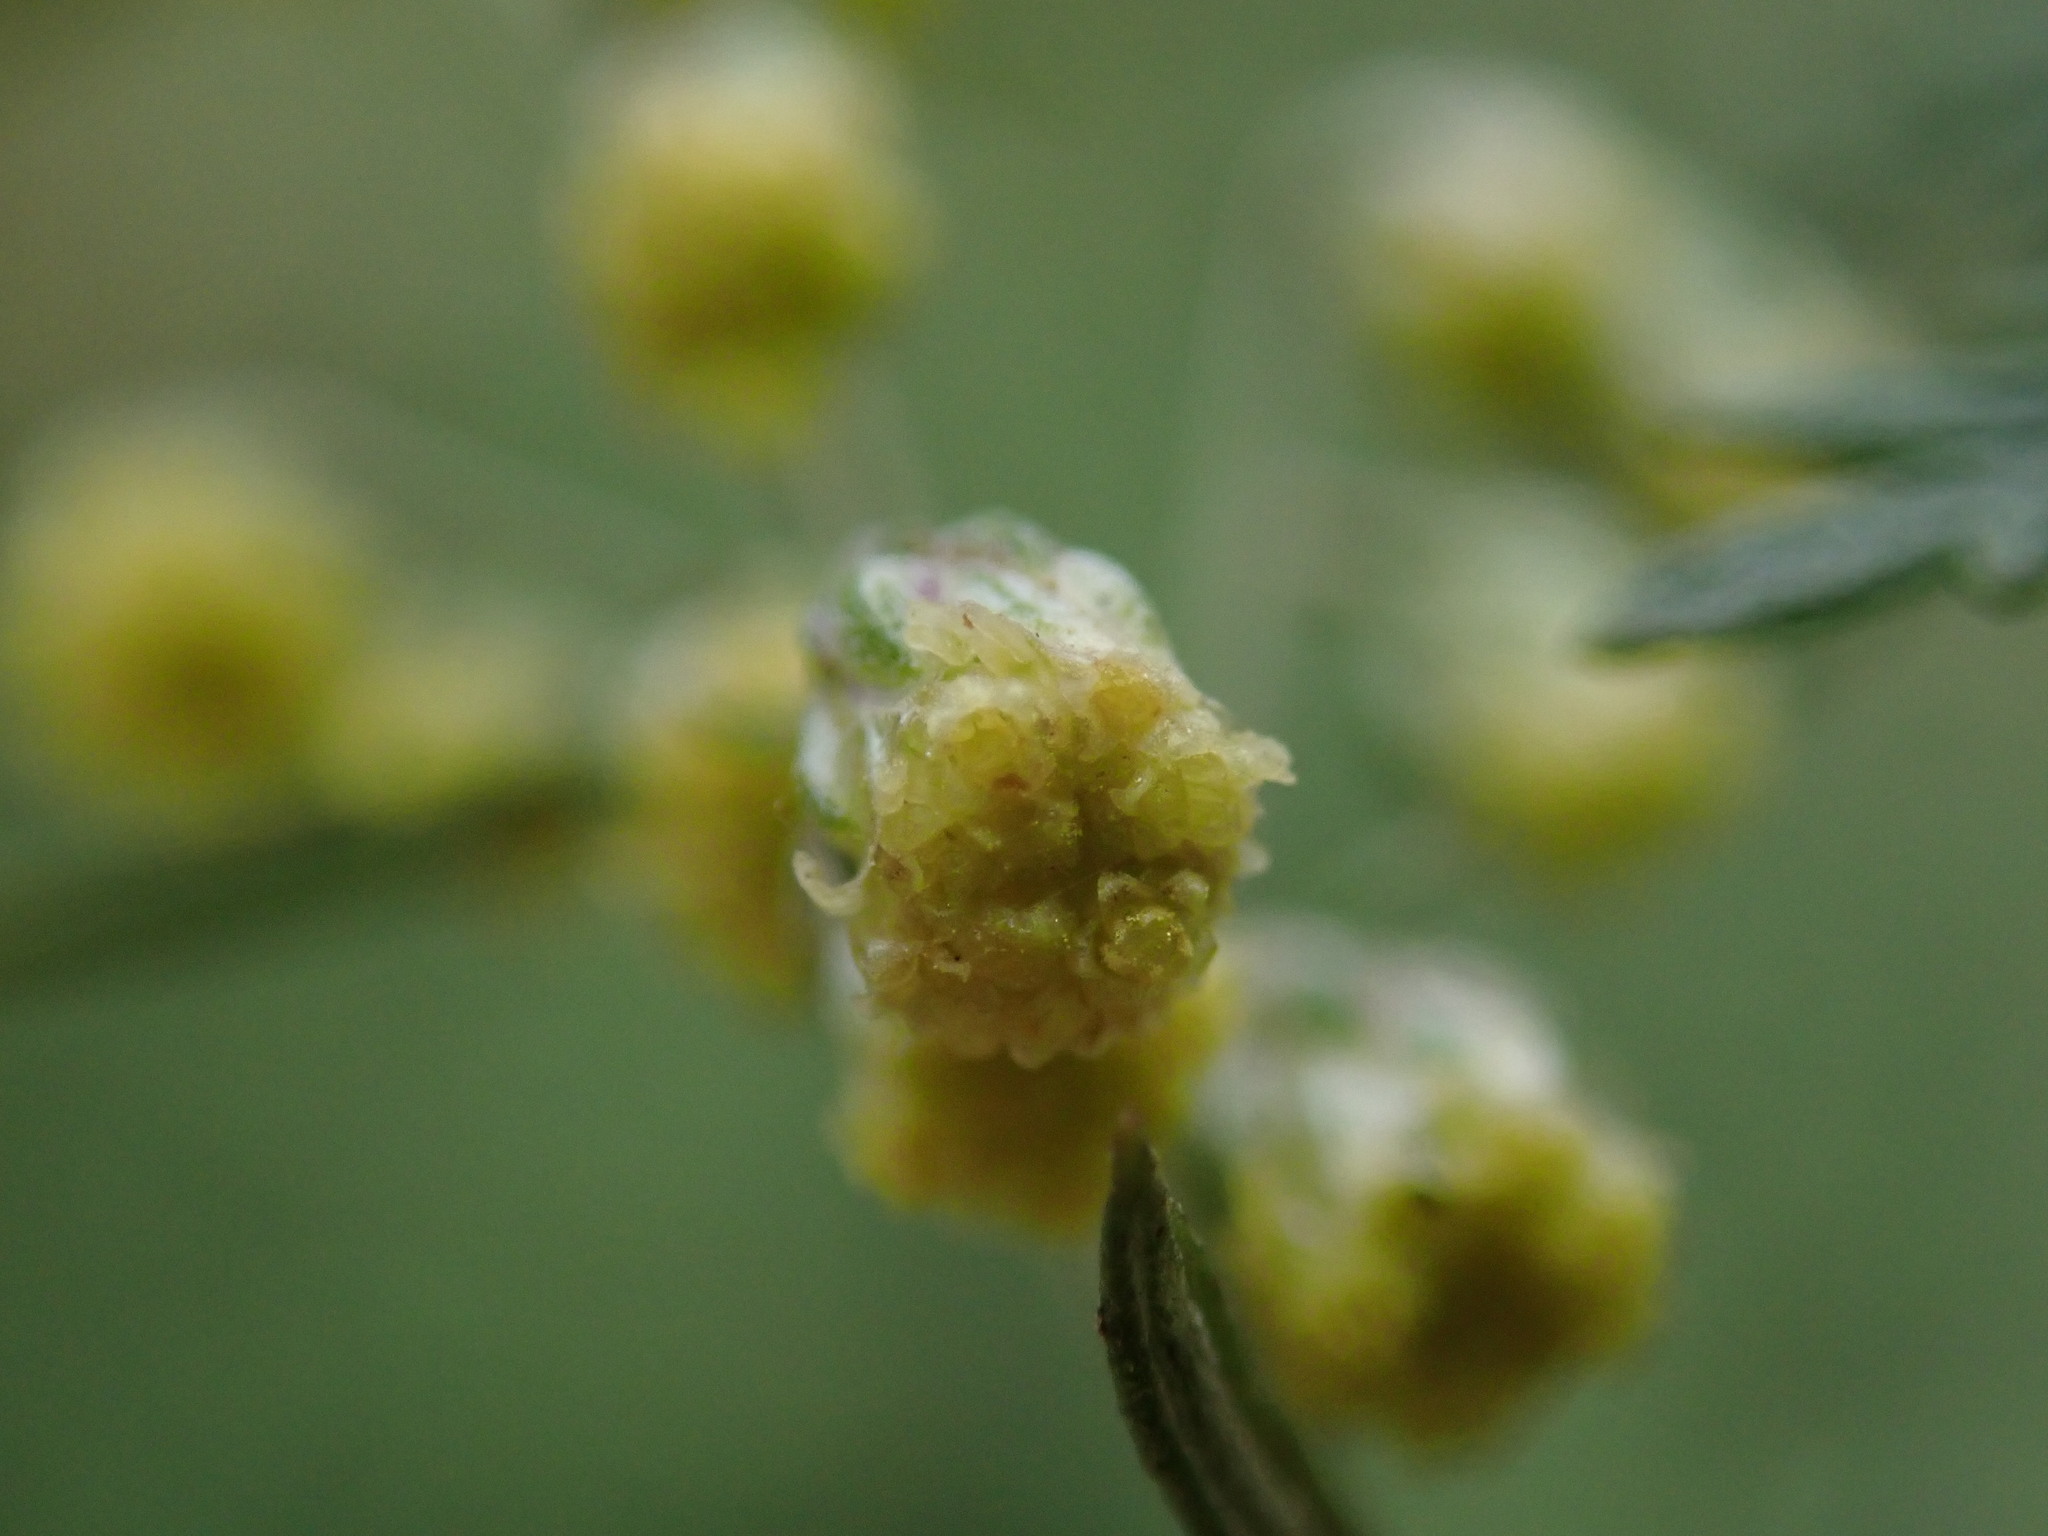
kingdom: Plantae
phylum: Tracheophyta
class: Magnoliopsida
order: Asterales
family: Asteraceae
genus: Artemisia
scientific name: Artemisia afra
